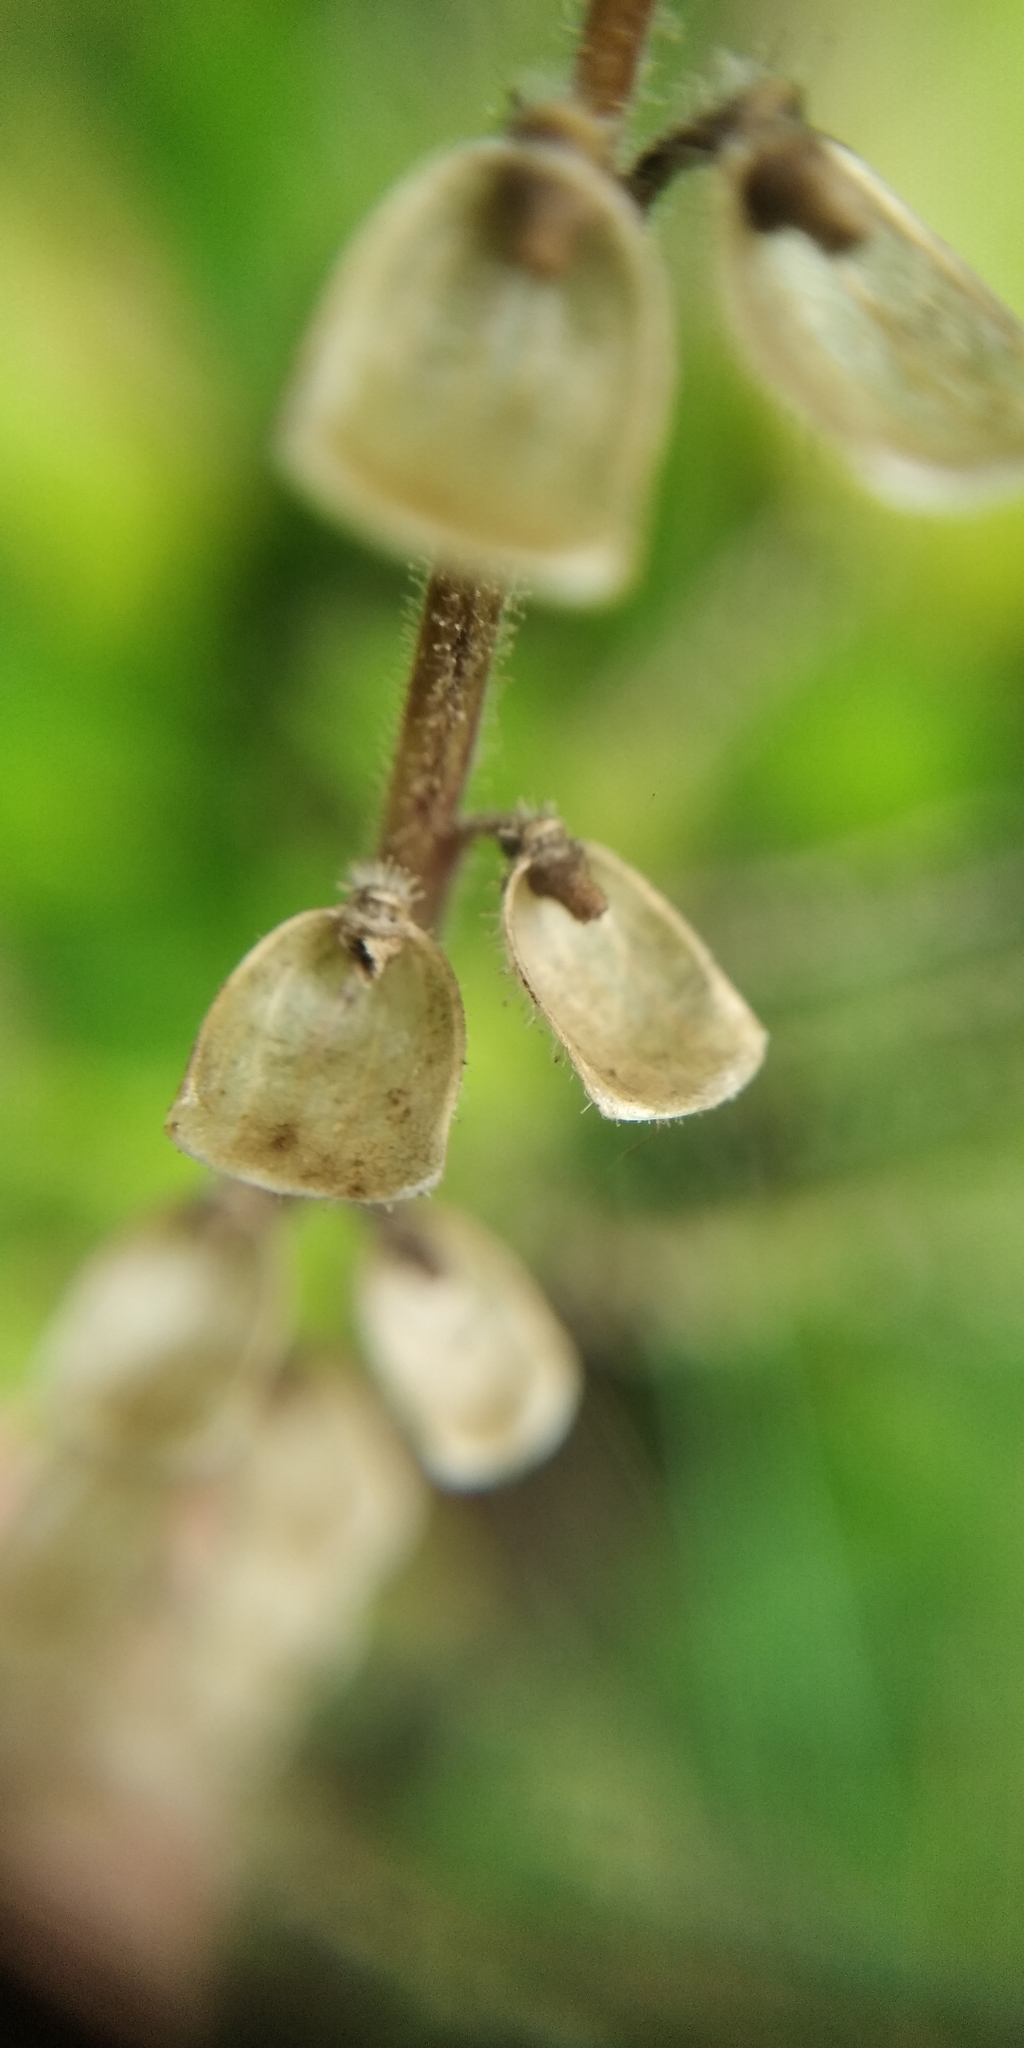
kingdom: Plantae
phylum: Tracheophyta
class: Magnoliopsida
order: Lamiales
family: Lamiaceae
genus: Scutellaria
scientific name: Scutellaria altissima
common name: Somerset skullcap
